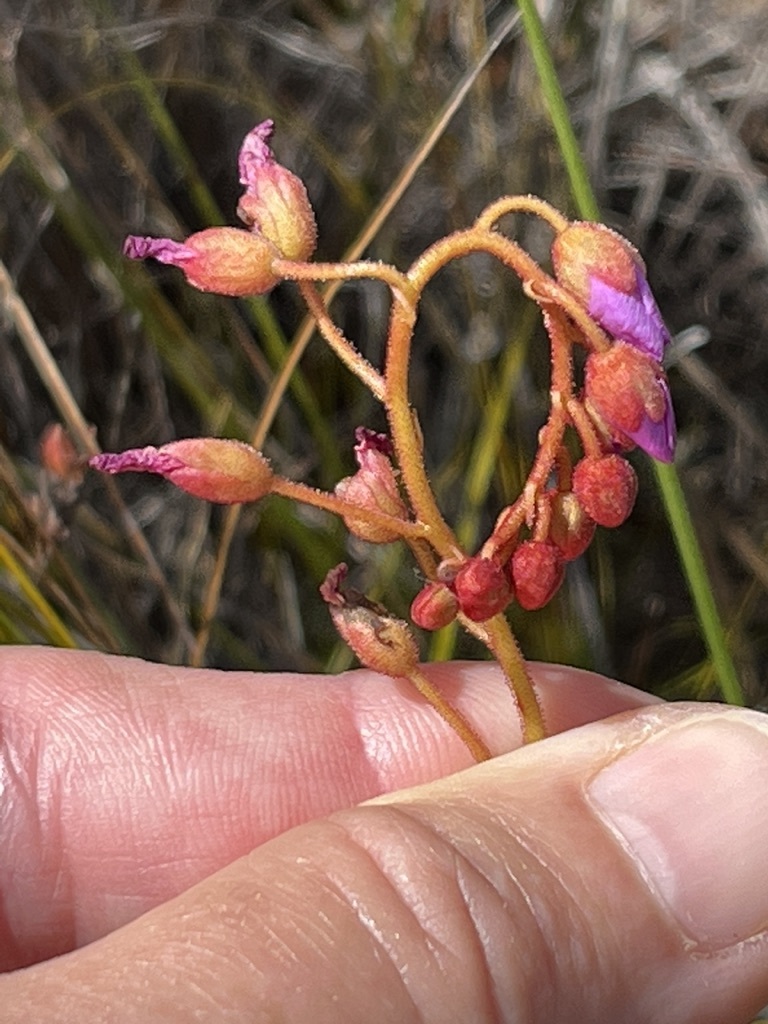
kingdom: Plantae
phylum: Tracheophyta
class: Magnoliopsida
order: Caryophyllales
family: Droseraceae
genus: Drosera
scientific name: Drosera aliciae
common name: Alice sundew
